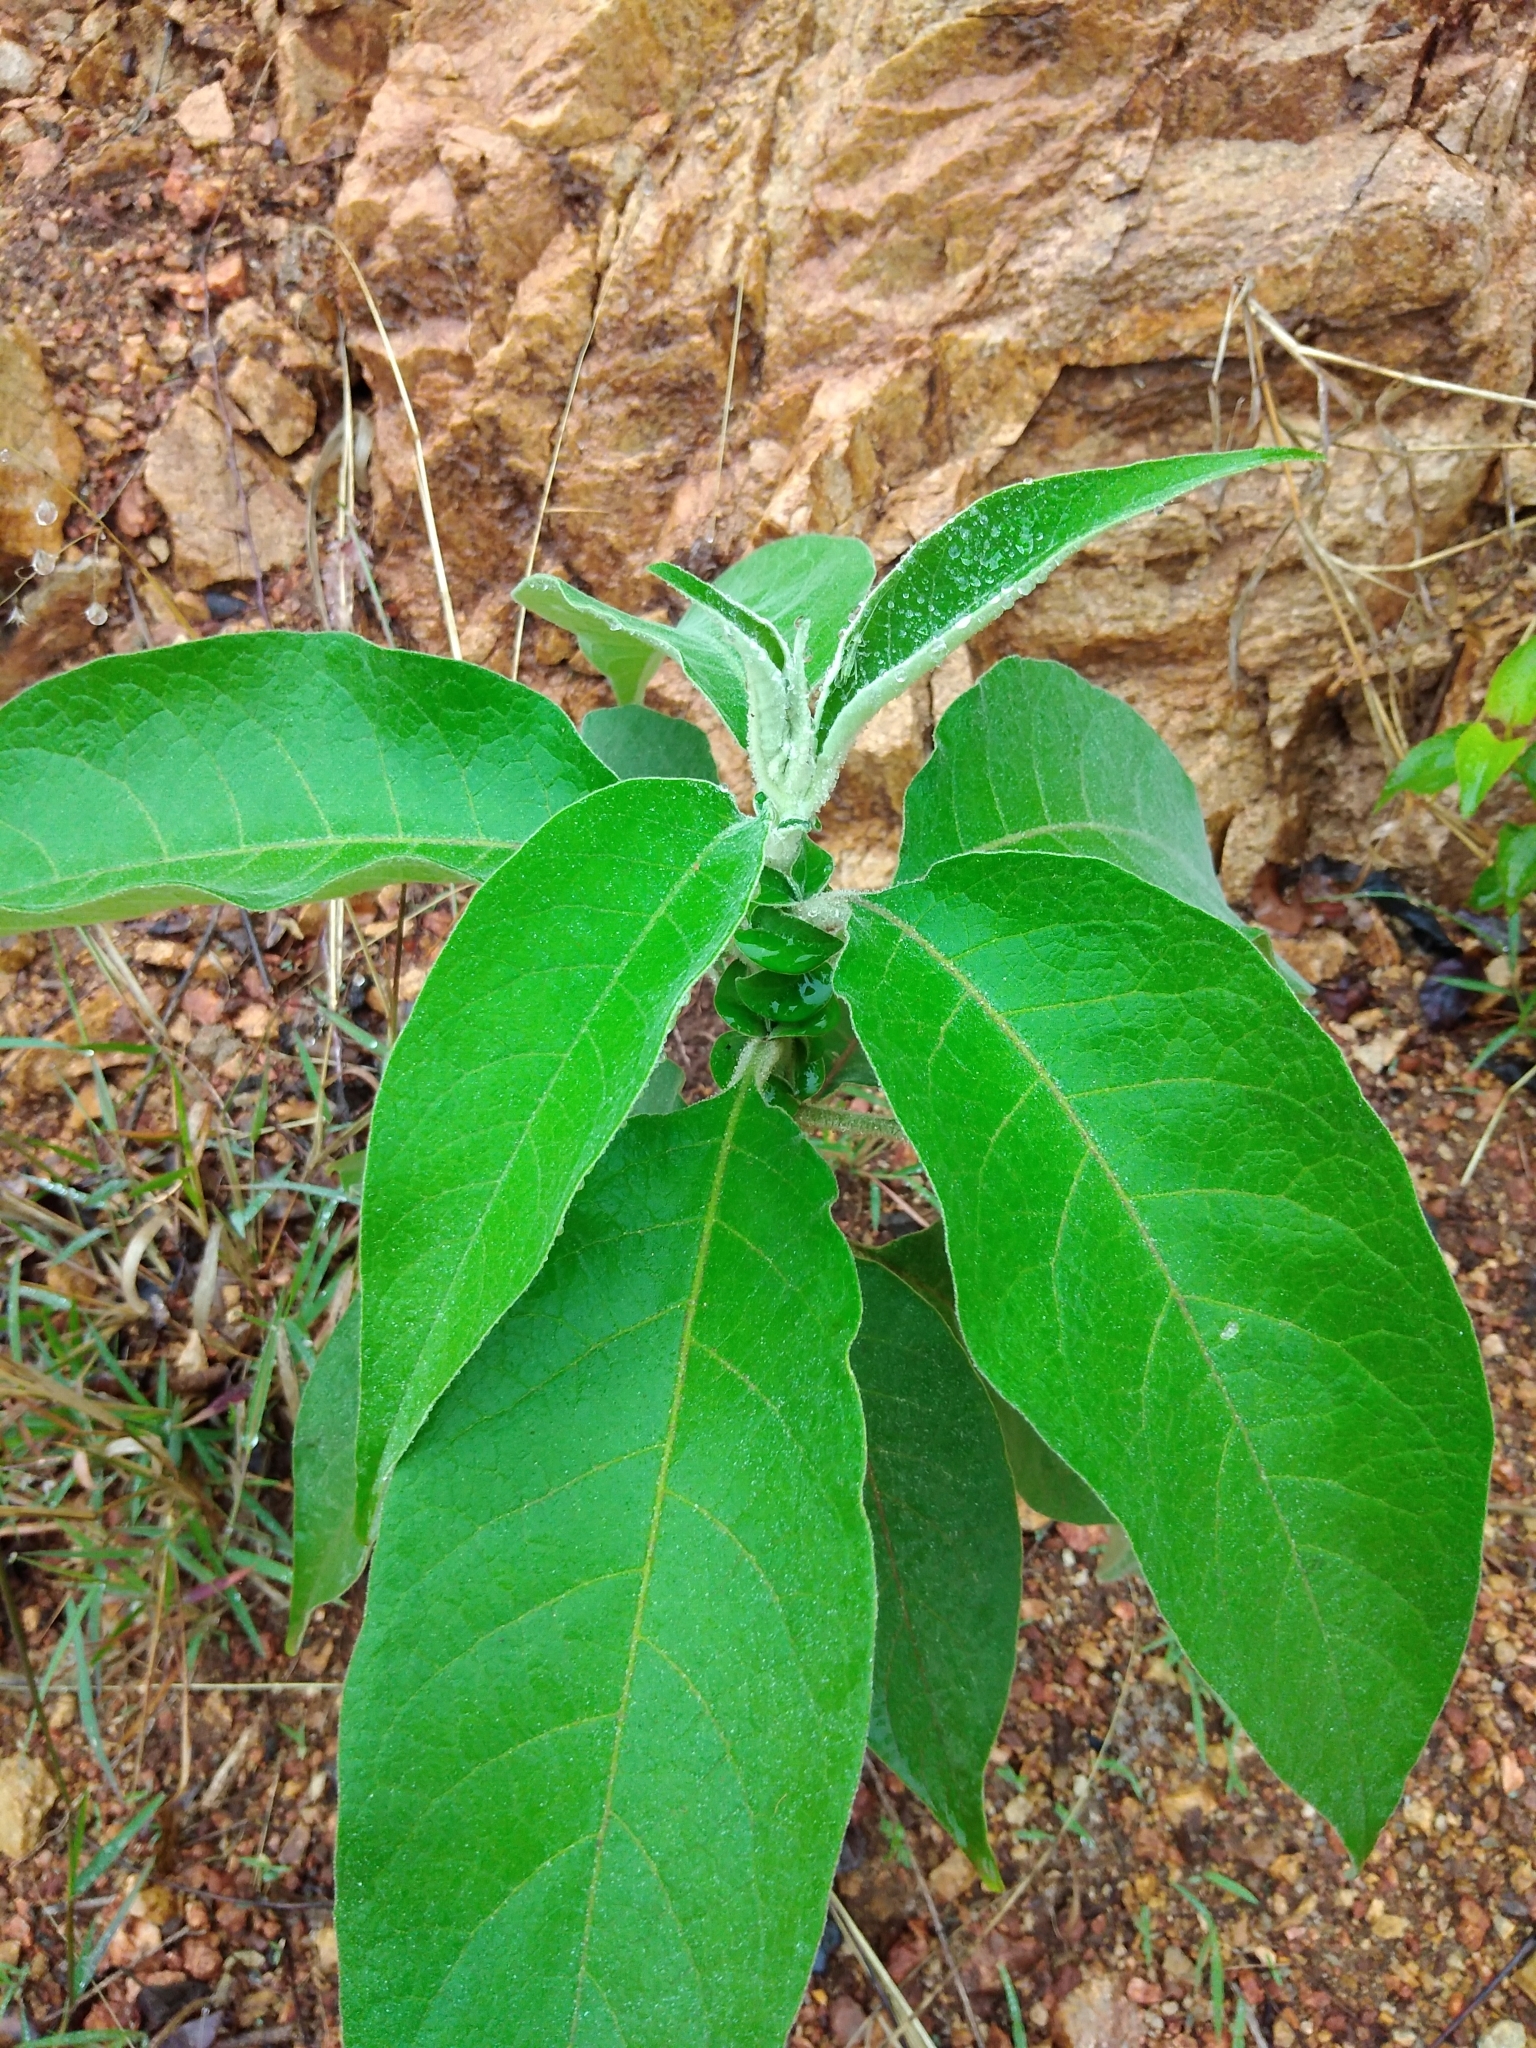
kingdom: Plantae
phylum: Tracheophyta
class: Magnoliopsida
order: Solanales
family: Solanaceae
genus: Solanum
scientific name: Solanum mauritianum
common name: Earleaf nightshade
